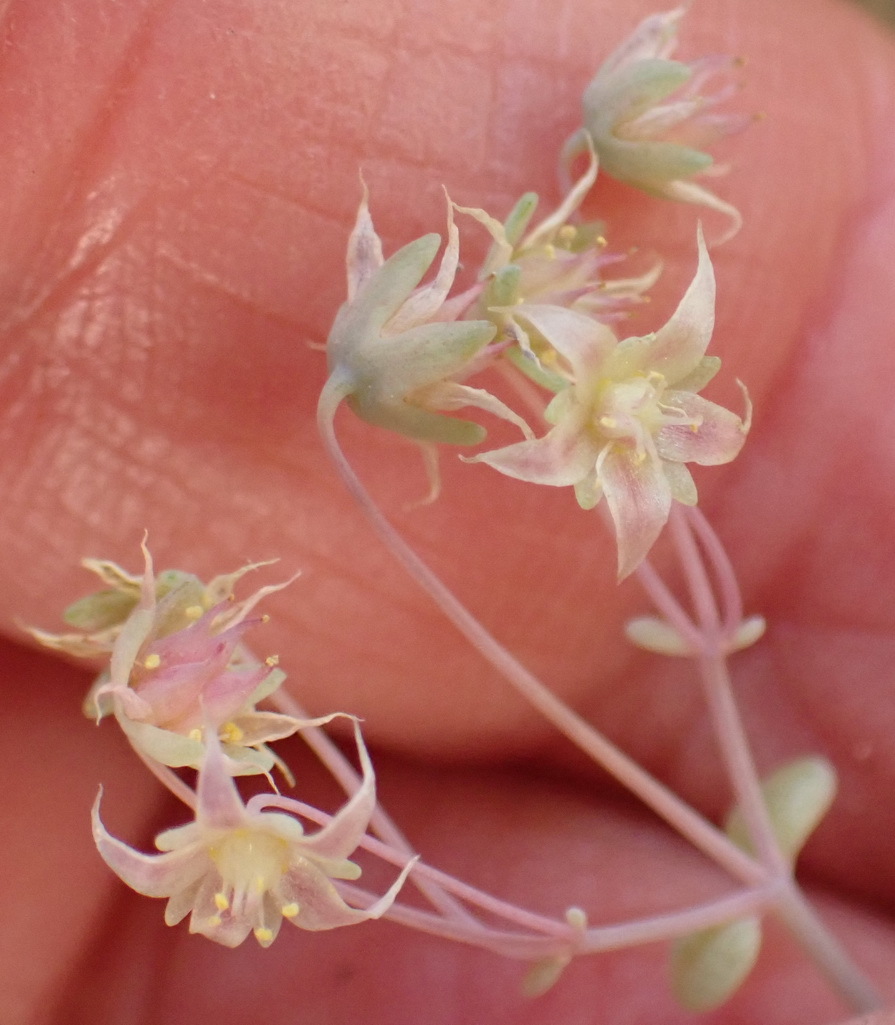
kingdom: Plantae
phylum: Tracheophyta
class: Magnoliopsida
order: Saxifragales
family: Crassulaceae
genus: Crassula
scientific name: Crassula nemorosa
